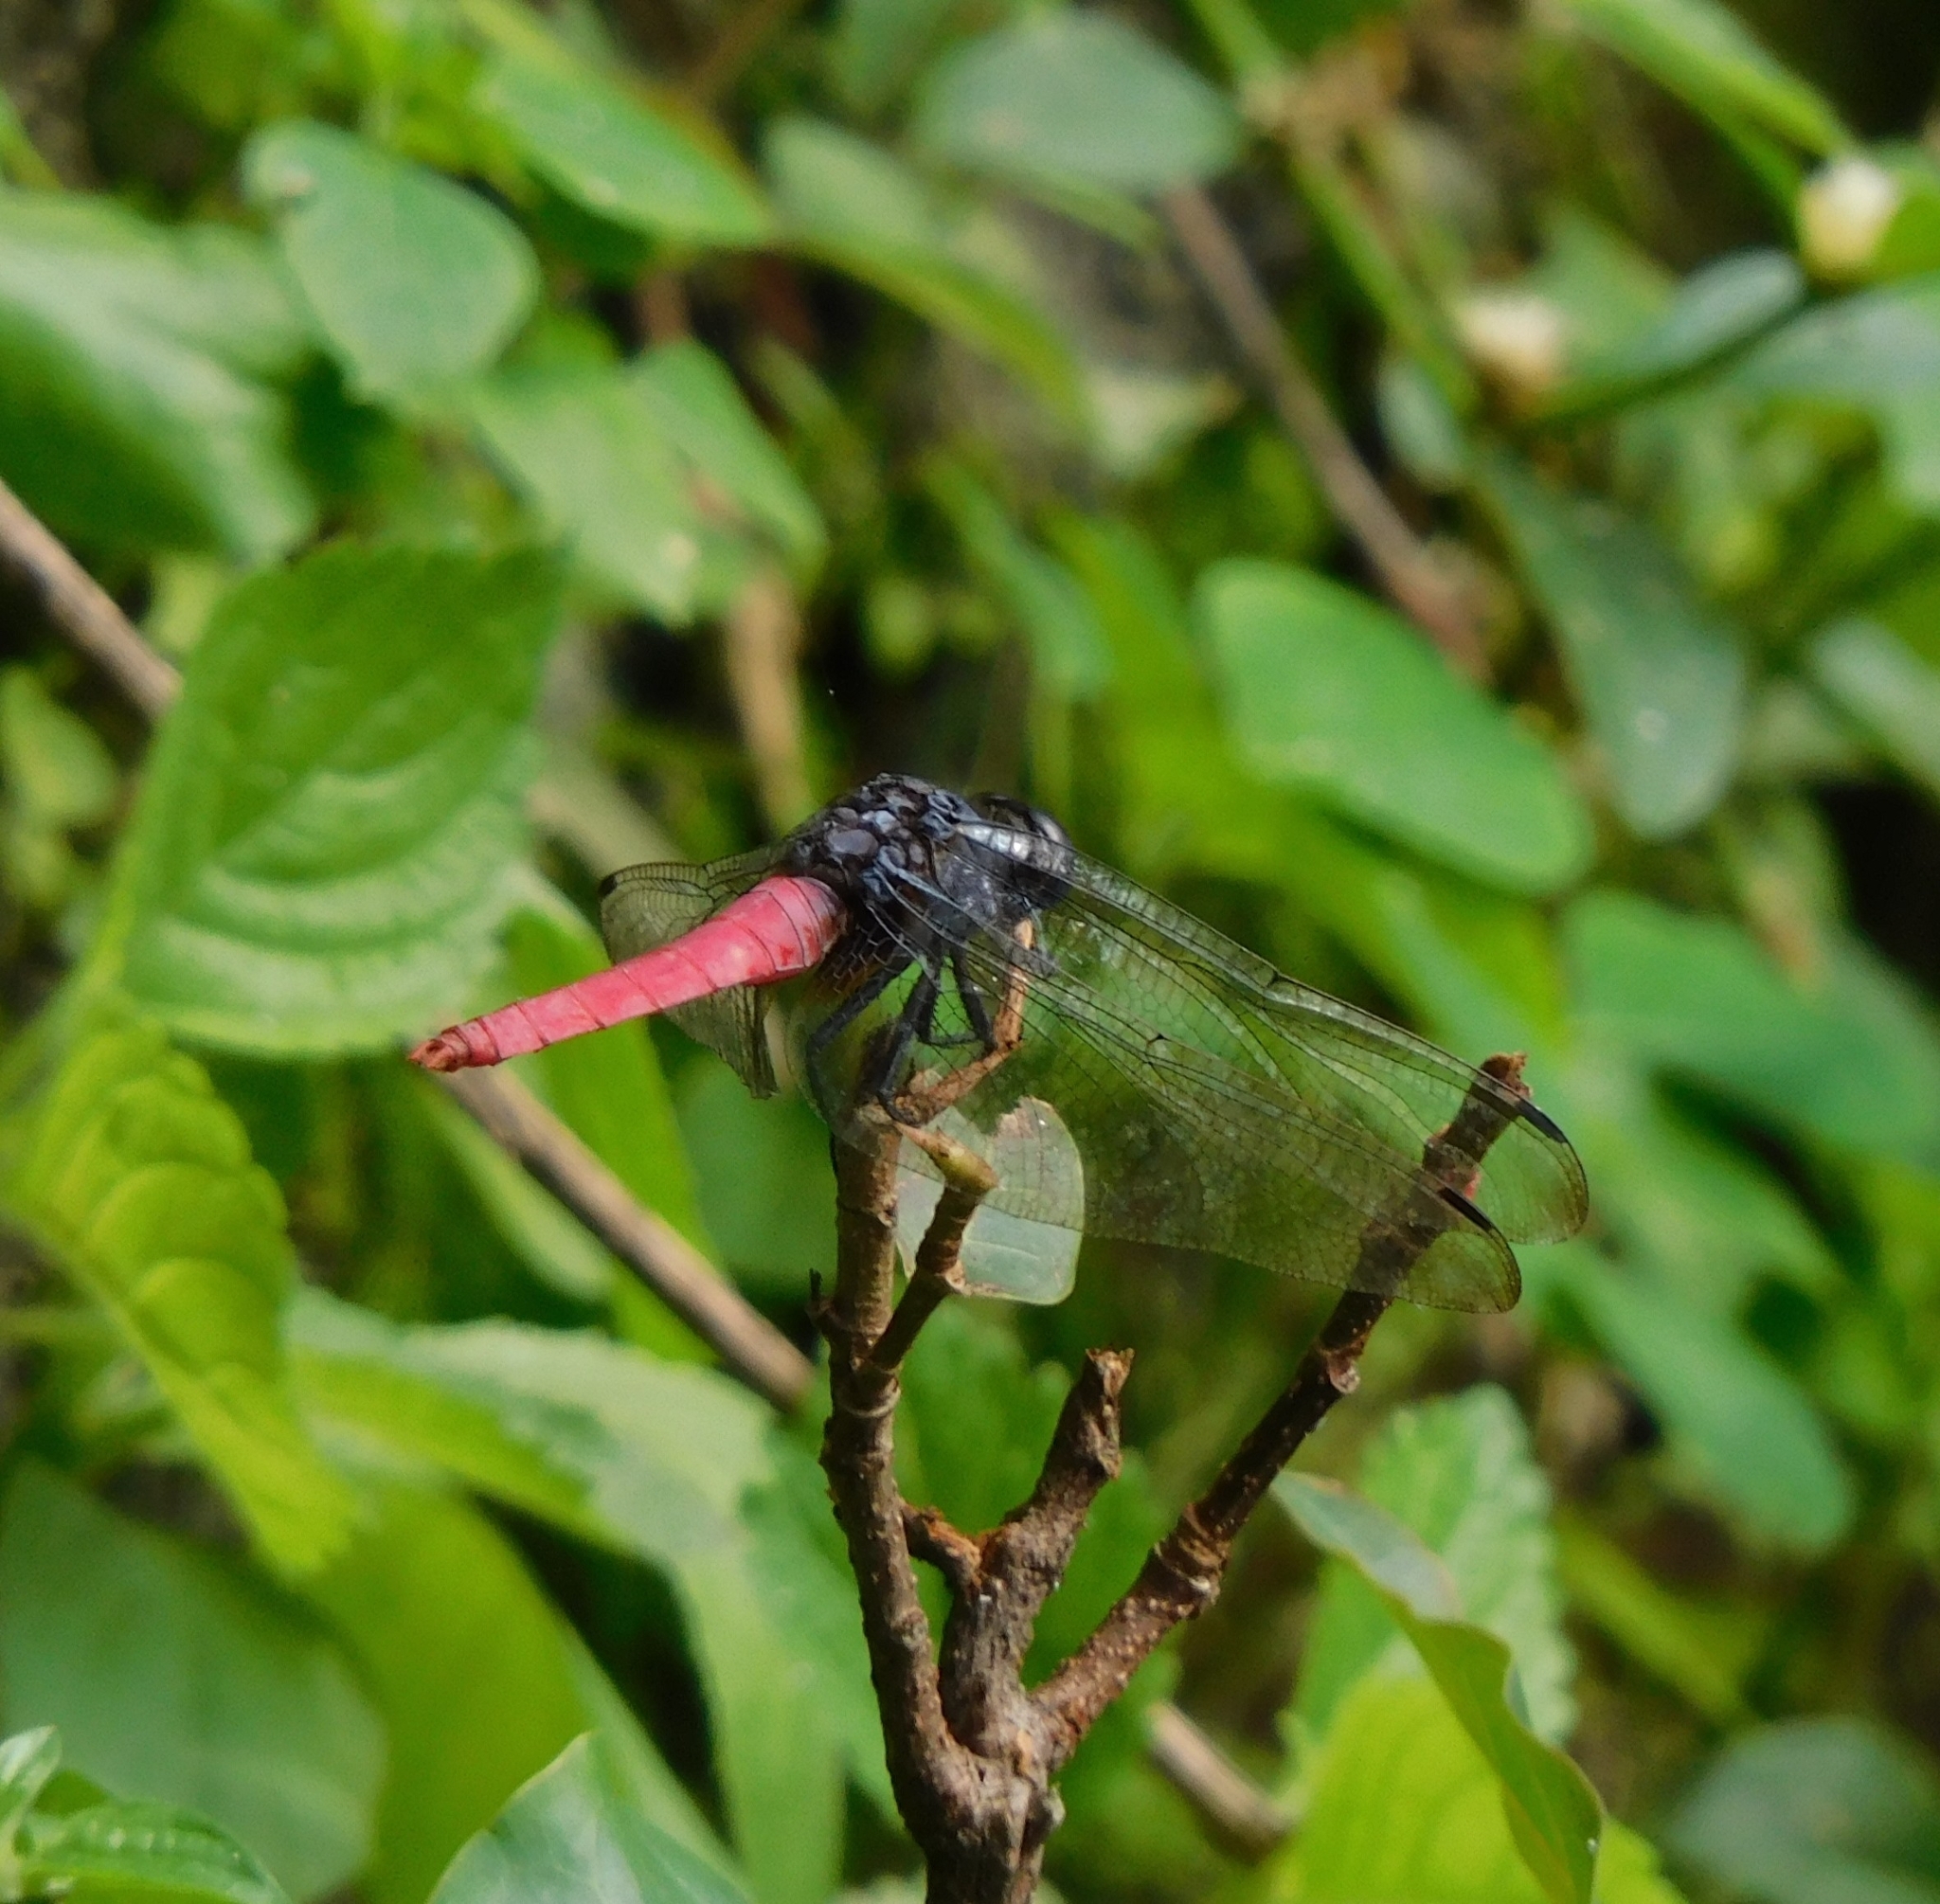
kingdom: Animalia
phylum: Arthropoda
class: Insecta
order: Odonata
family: Libellulidae
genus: Orthetrum
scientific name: Orthetrum pruinosum
